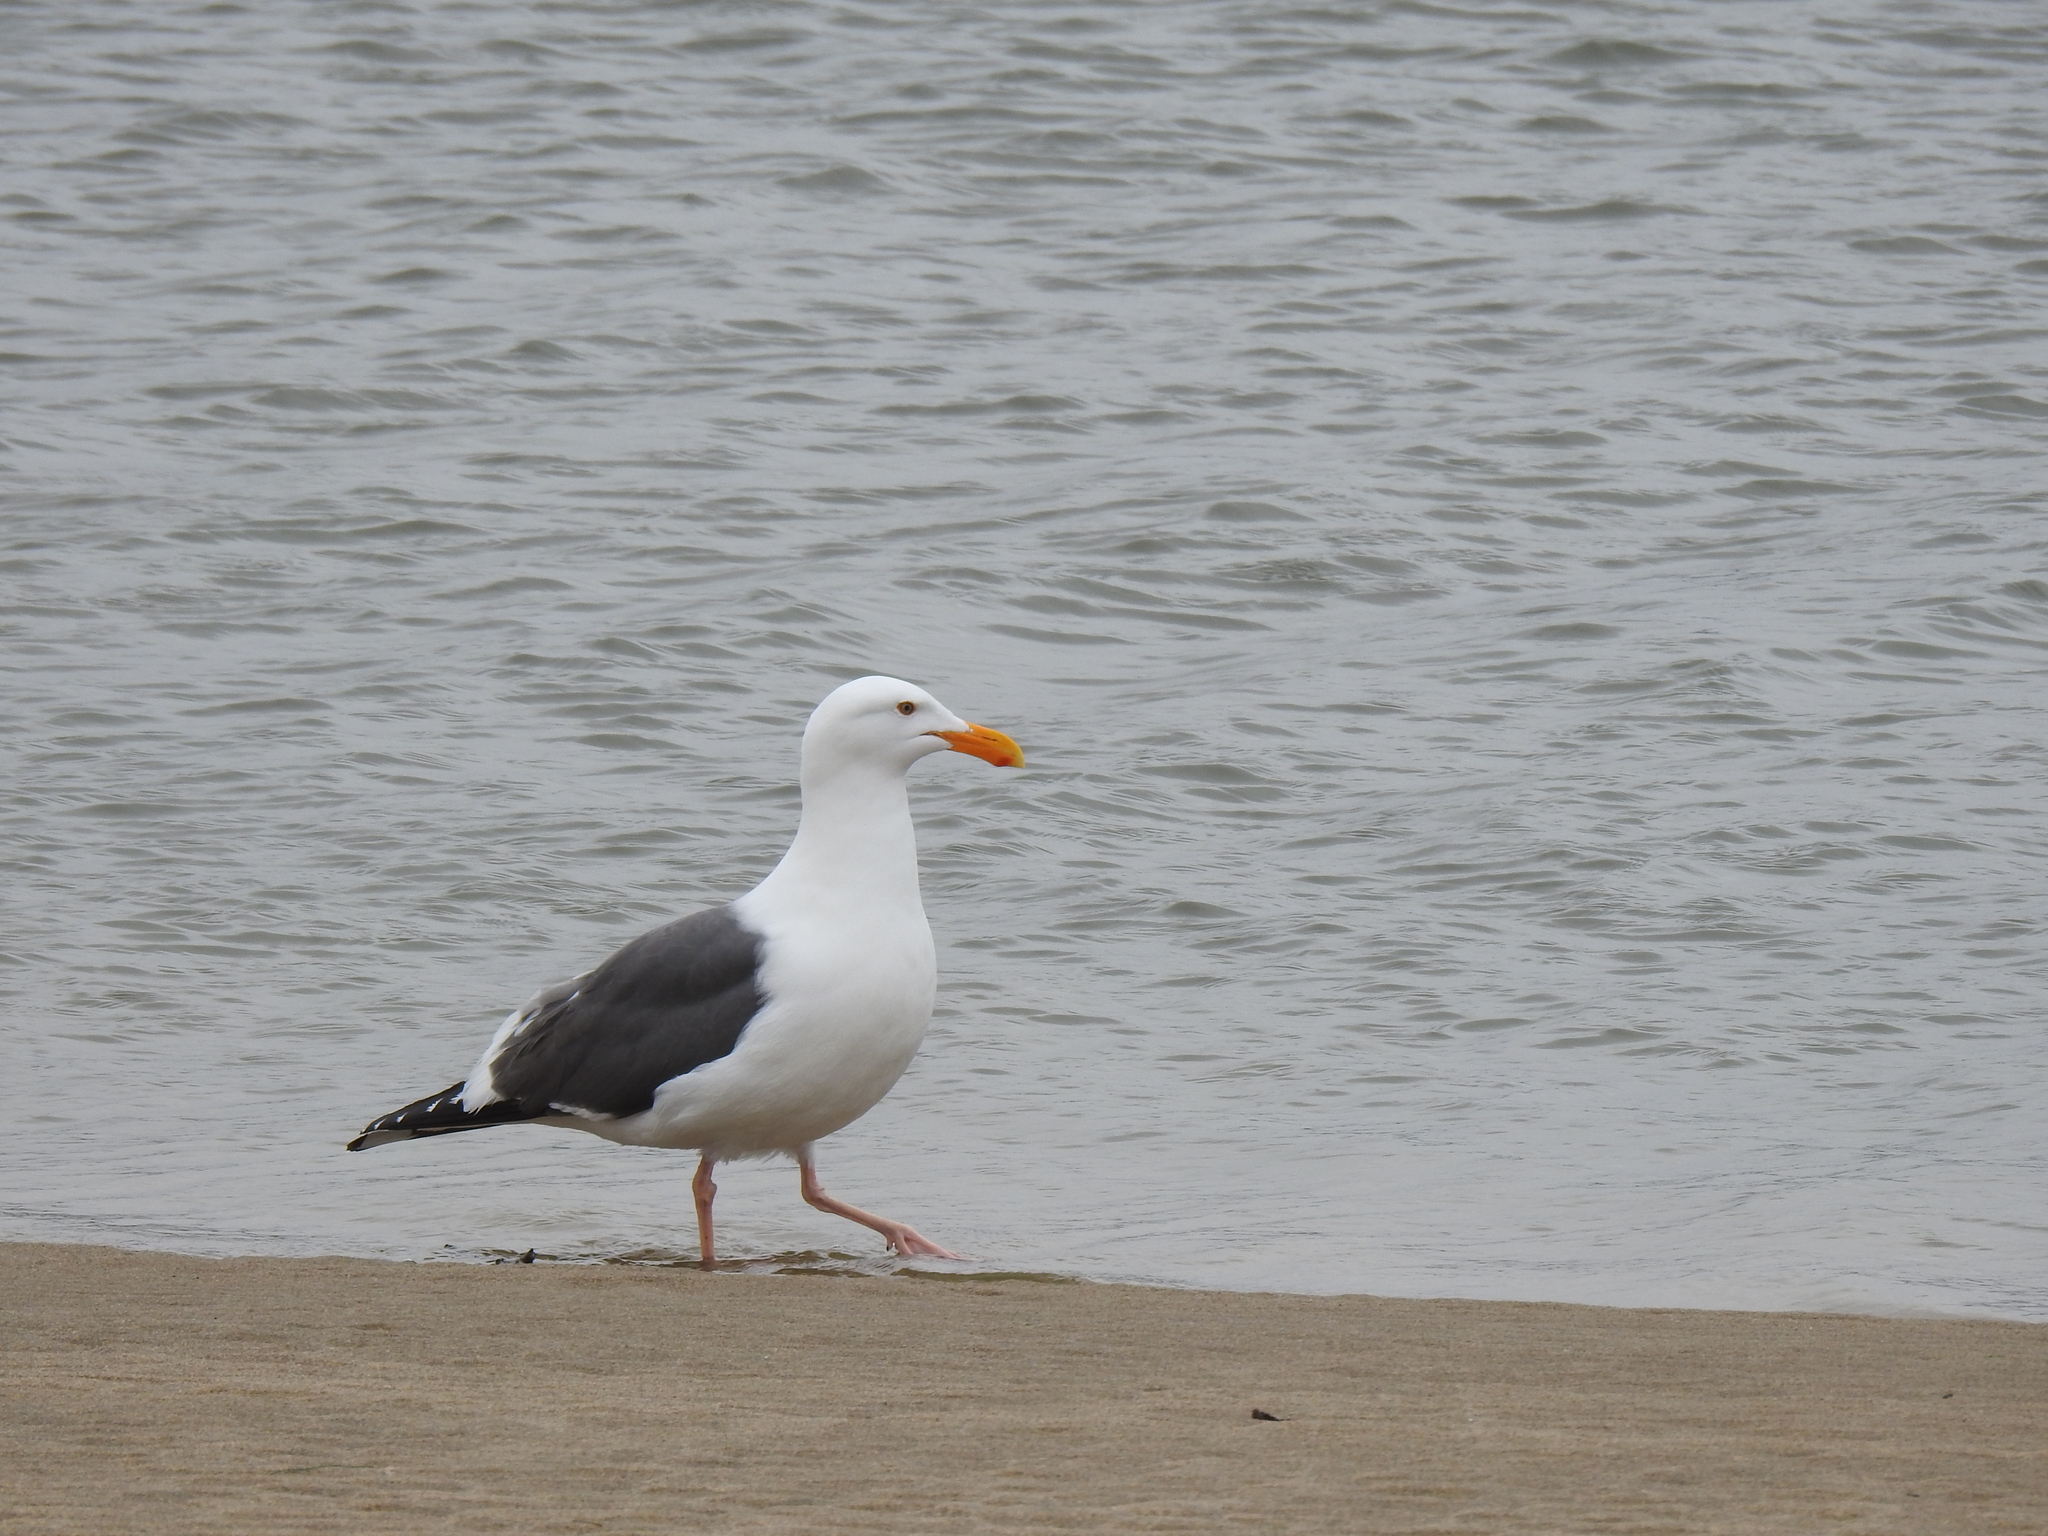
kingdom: Animalia
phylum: Chordata
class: Aves
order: Charadriiformes
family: Laridae
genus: Larus
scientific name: Larus occidentalis
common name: Western gull
